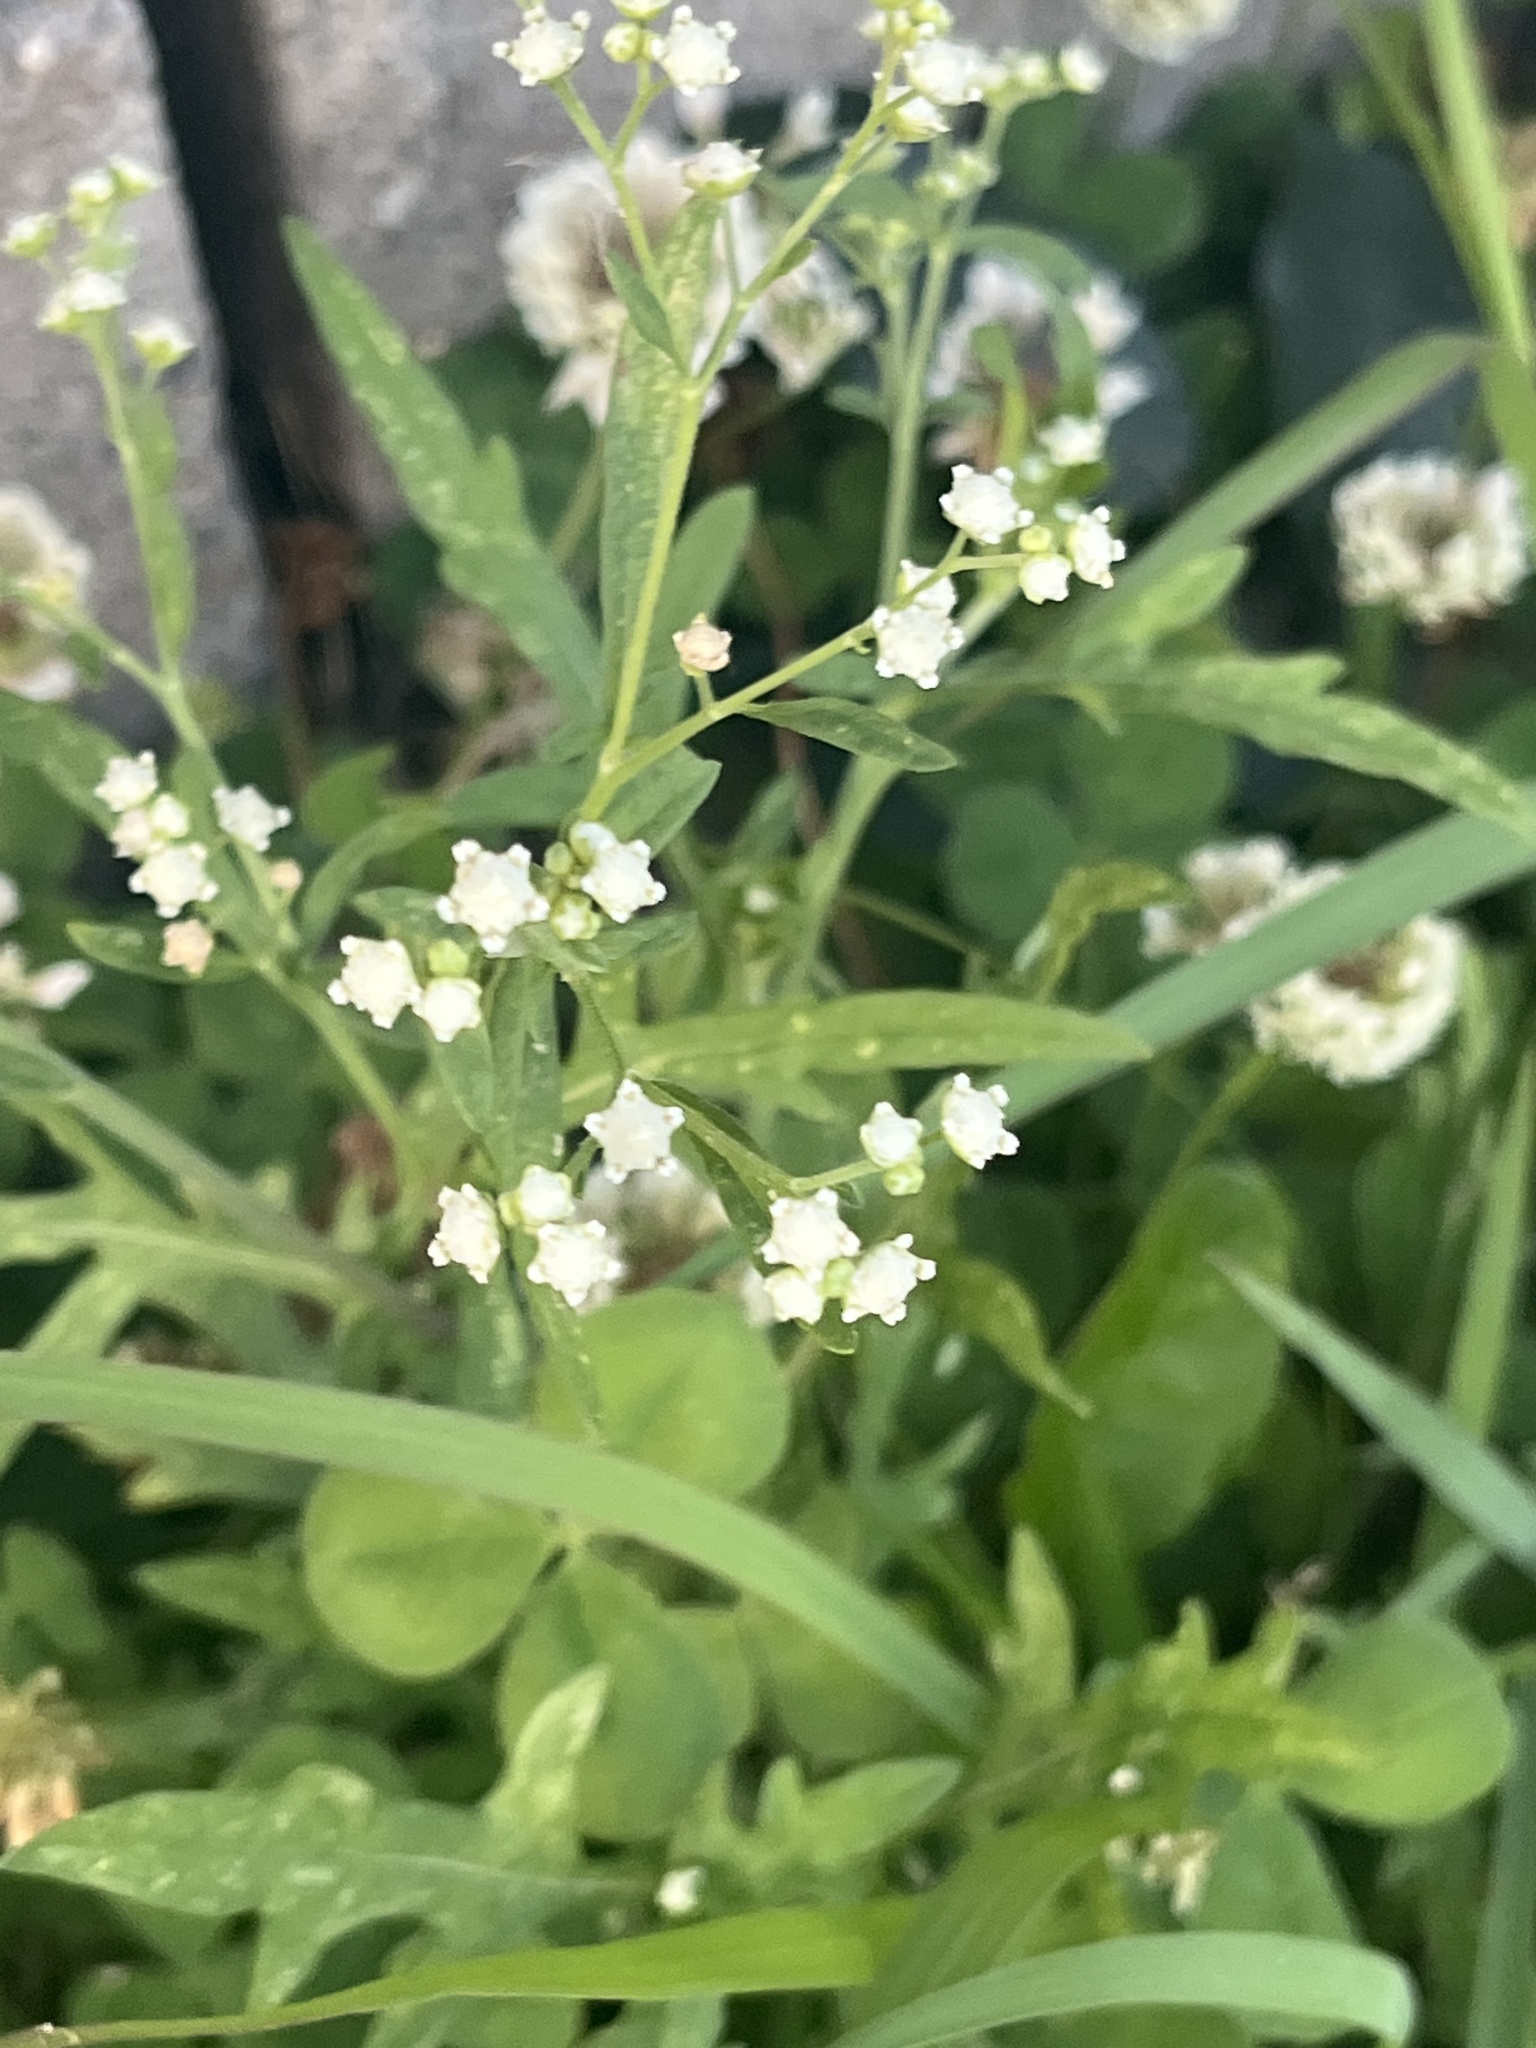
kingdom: Plantae
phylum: Tracheophyta
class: Magnoliopsida
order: Asterales
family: Asteraceae
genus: Parthenium
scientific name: Parthenium hysterophorus
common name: Santa maria feverfew
